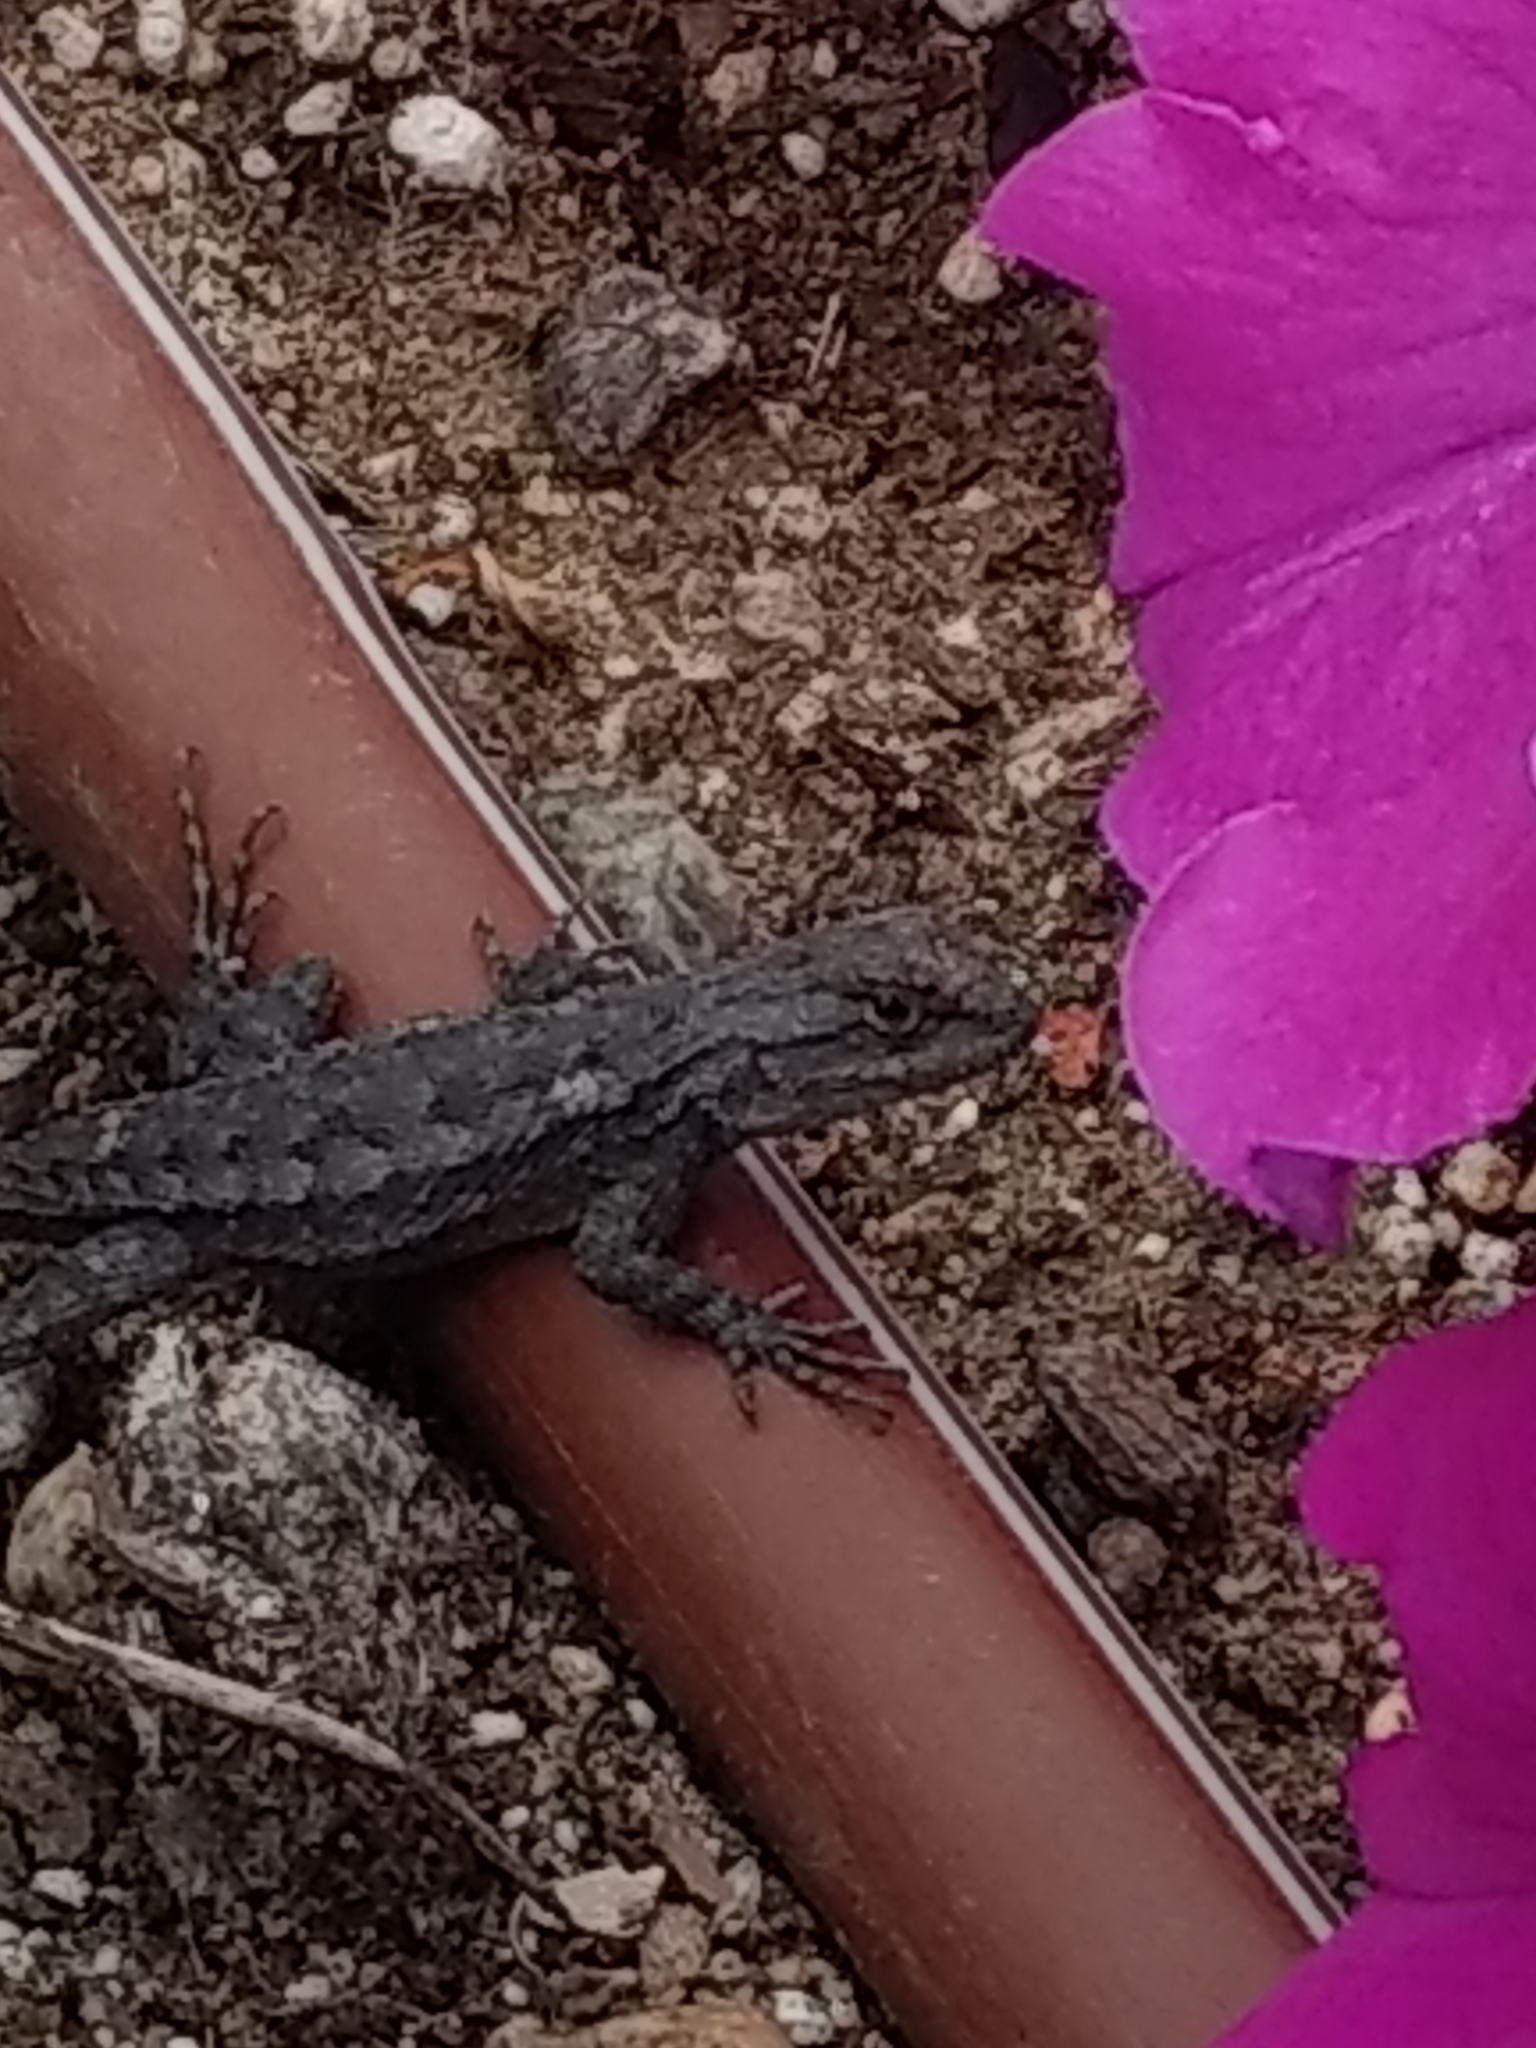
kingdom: Animalia
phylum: Chordata
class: Squamata
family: Phrynosomatidae
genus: Sceloporus
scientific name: Sceloporus occidentalis
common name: Western fence lizard
